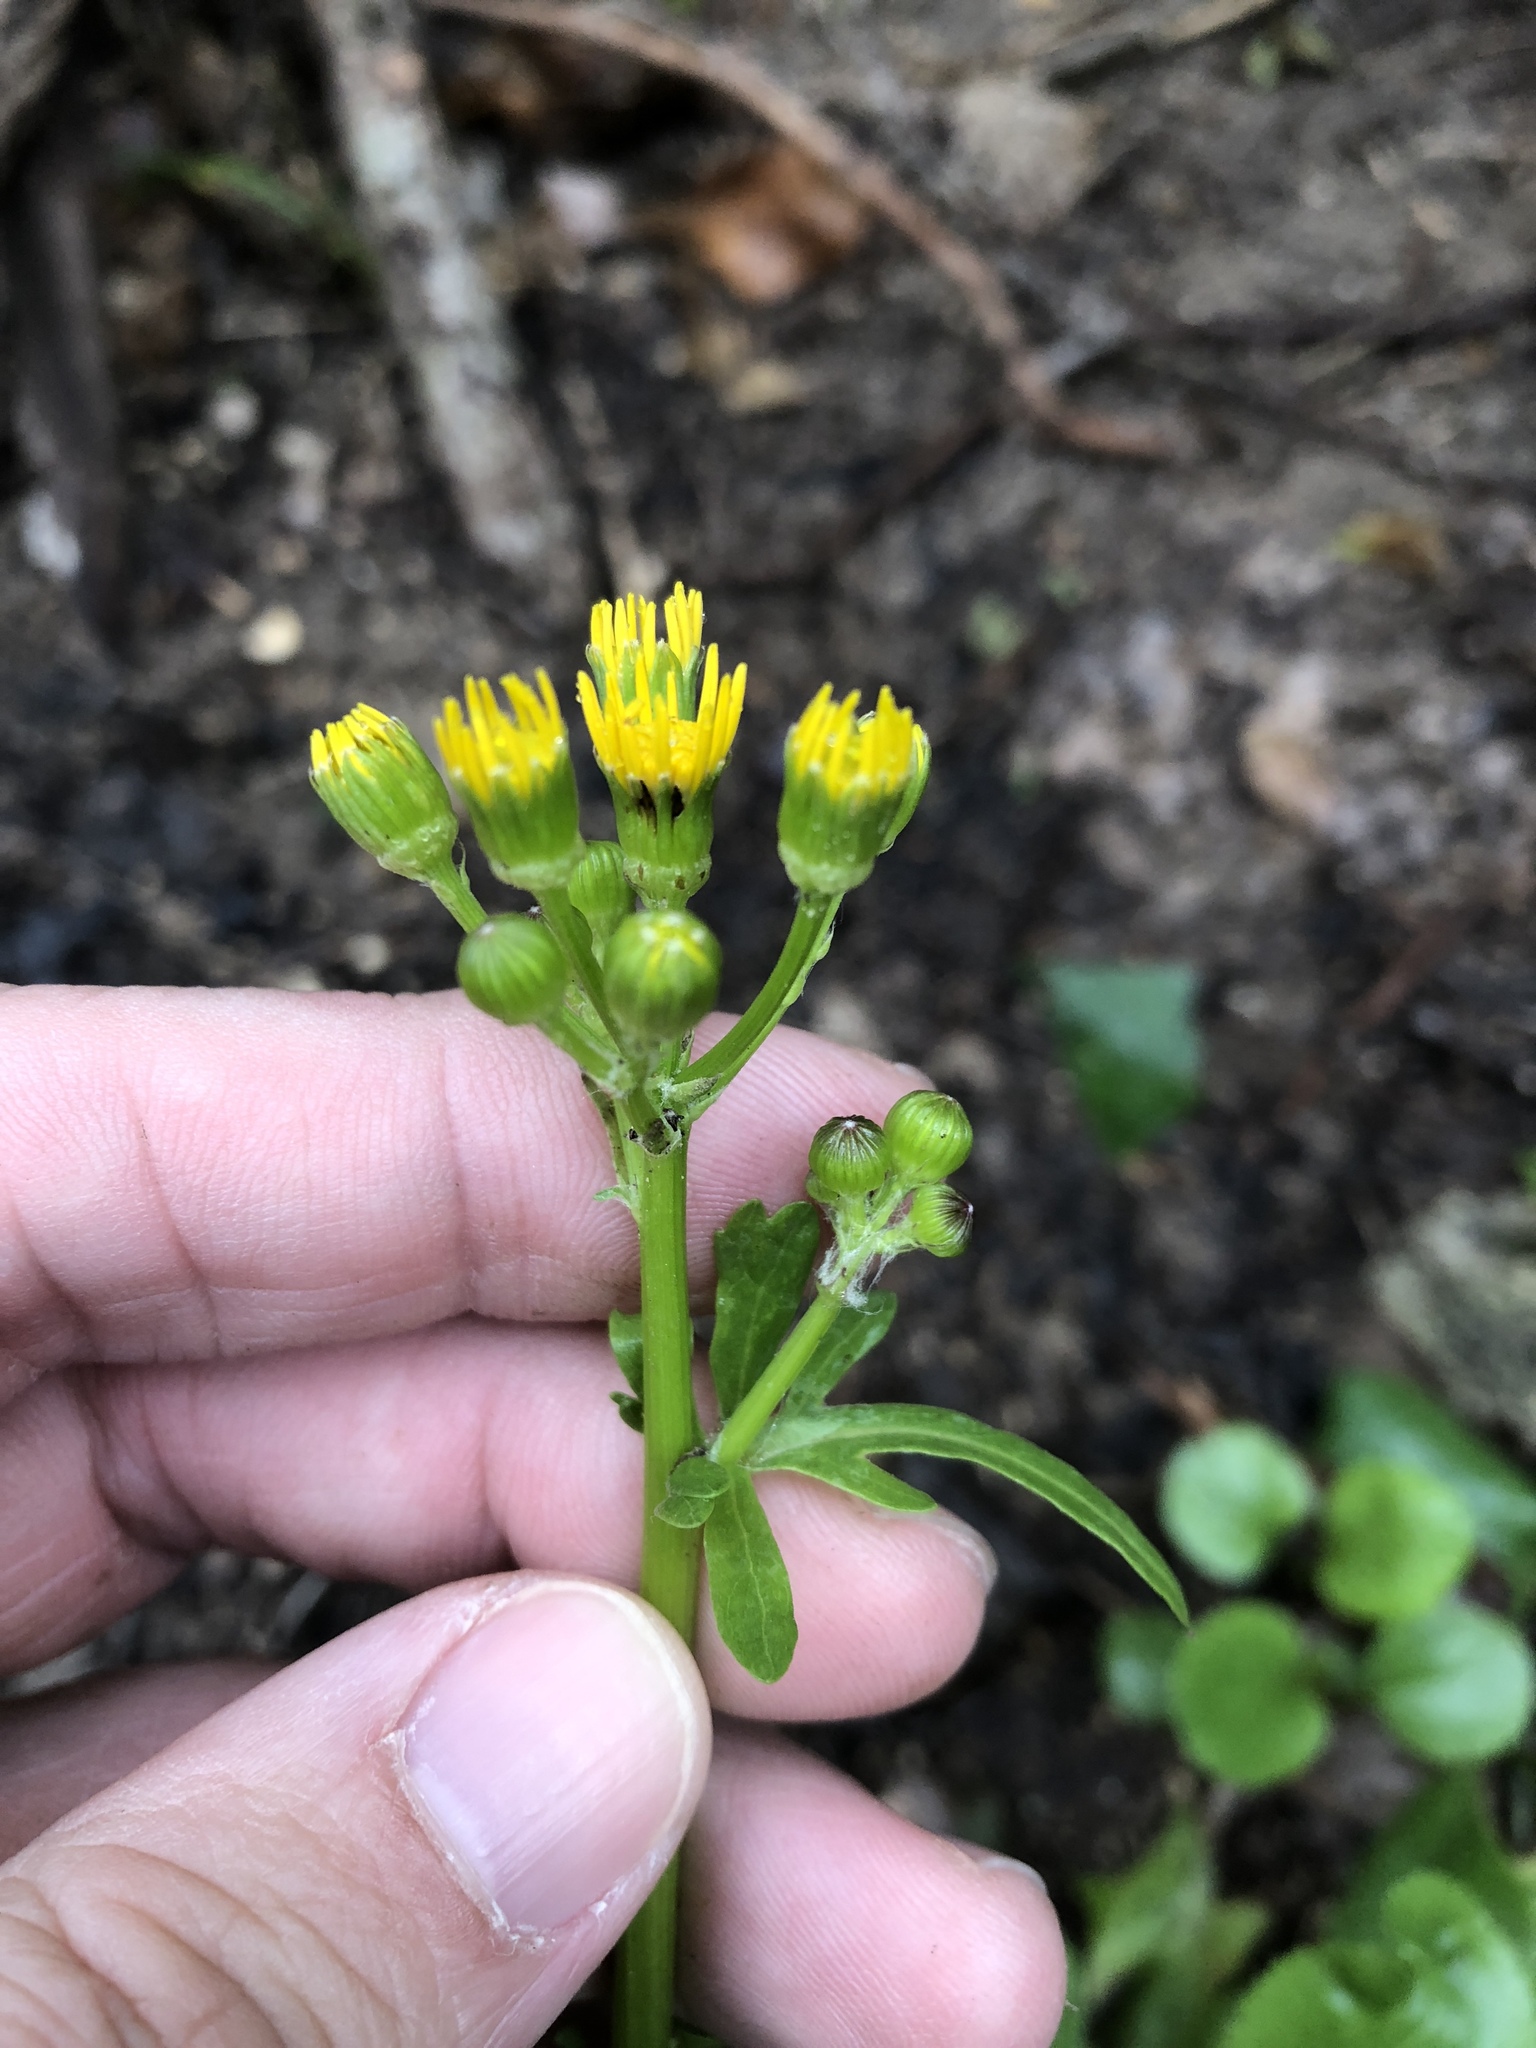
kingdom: Plantae
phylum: Tracheophyta
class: Magnoliopsida
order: Asterales
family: Asteraceae
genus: Packera
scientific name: Packera obovata
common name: Round-leaf ragwort
